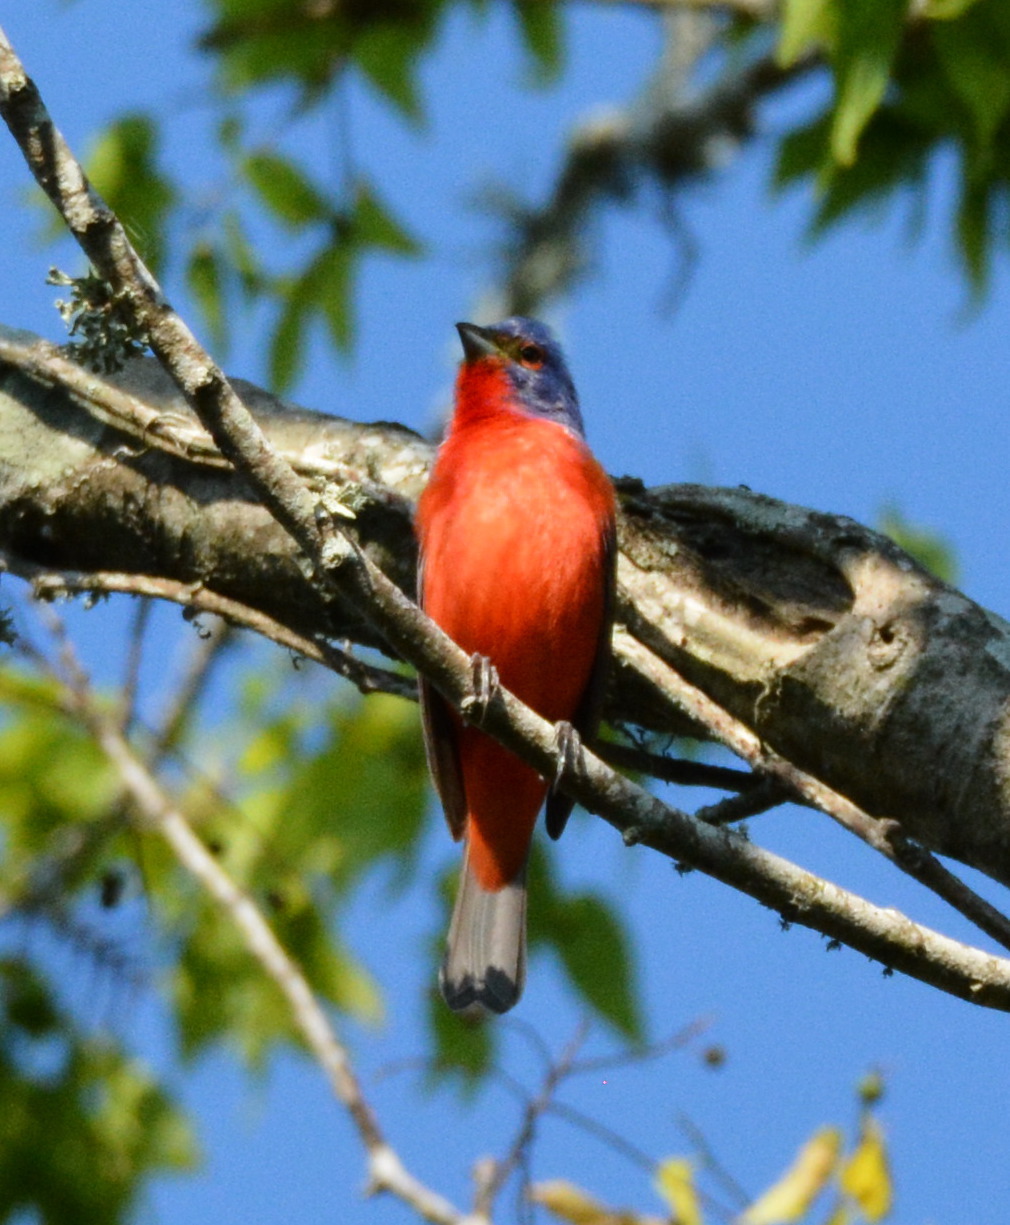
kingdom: Animalia
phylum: Chordata
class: Aves
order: Passeriformes
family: Cardinalidae
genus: Passerina
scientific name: Passerina ciris
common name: Painted bunting
